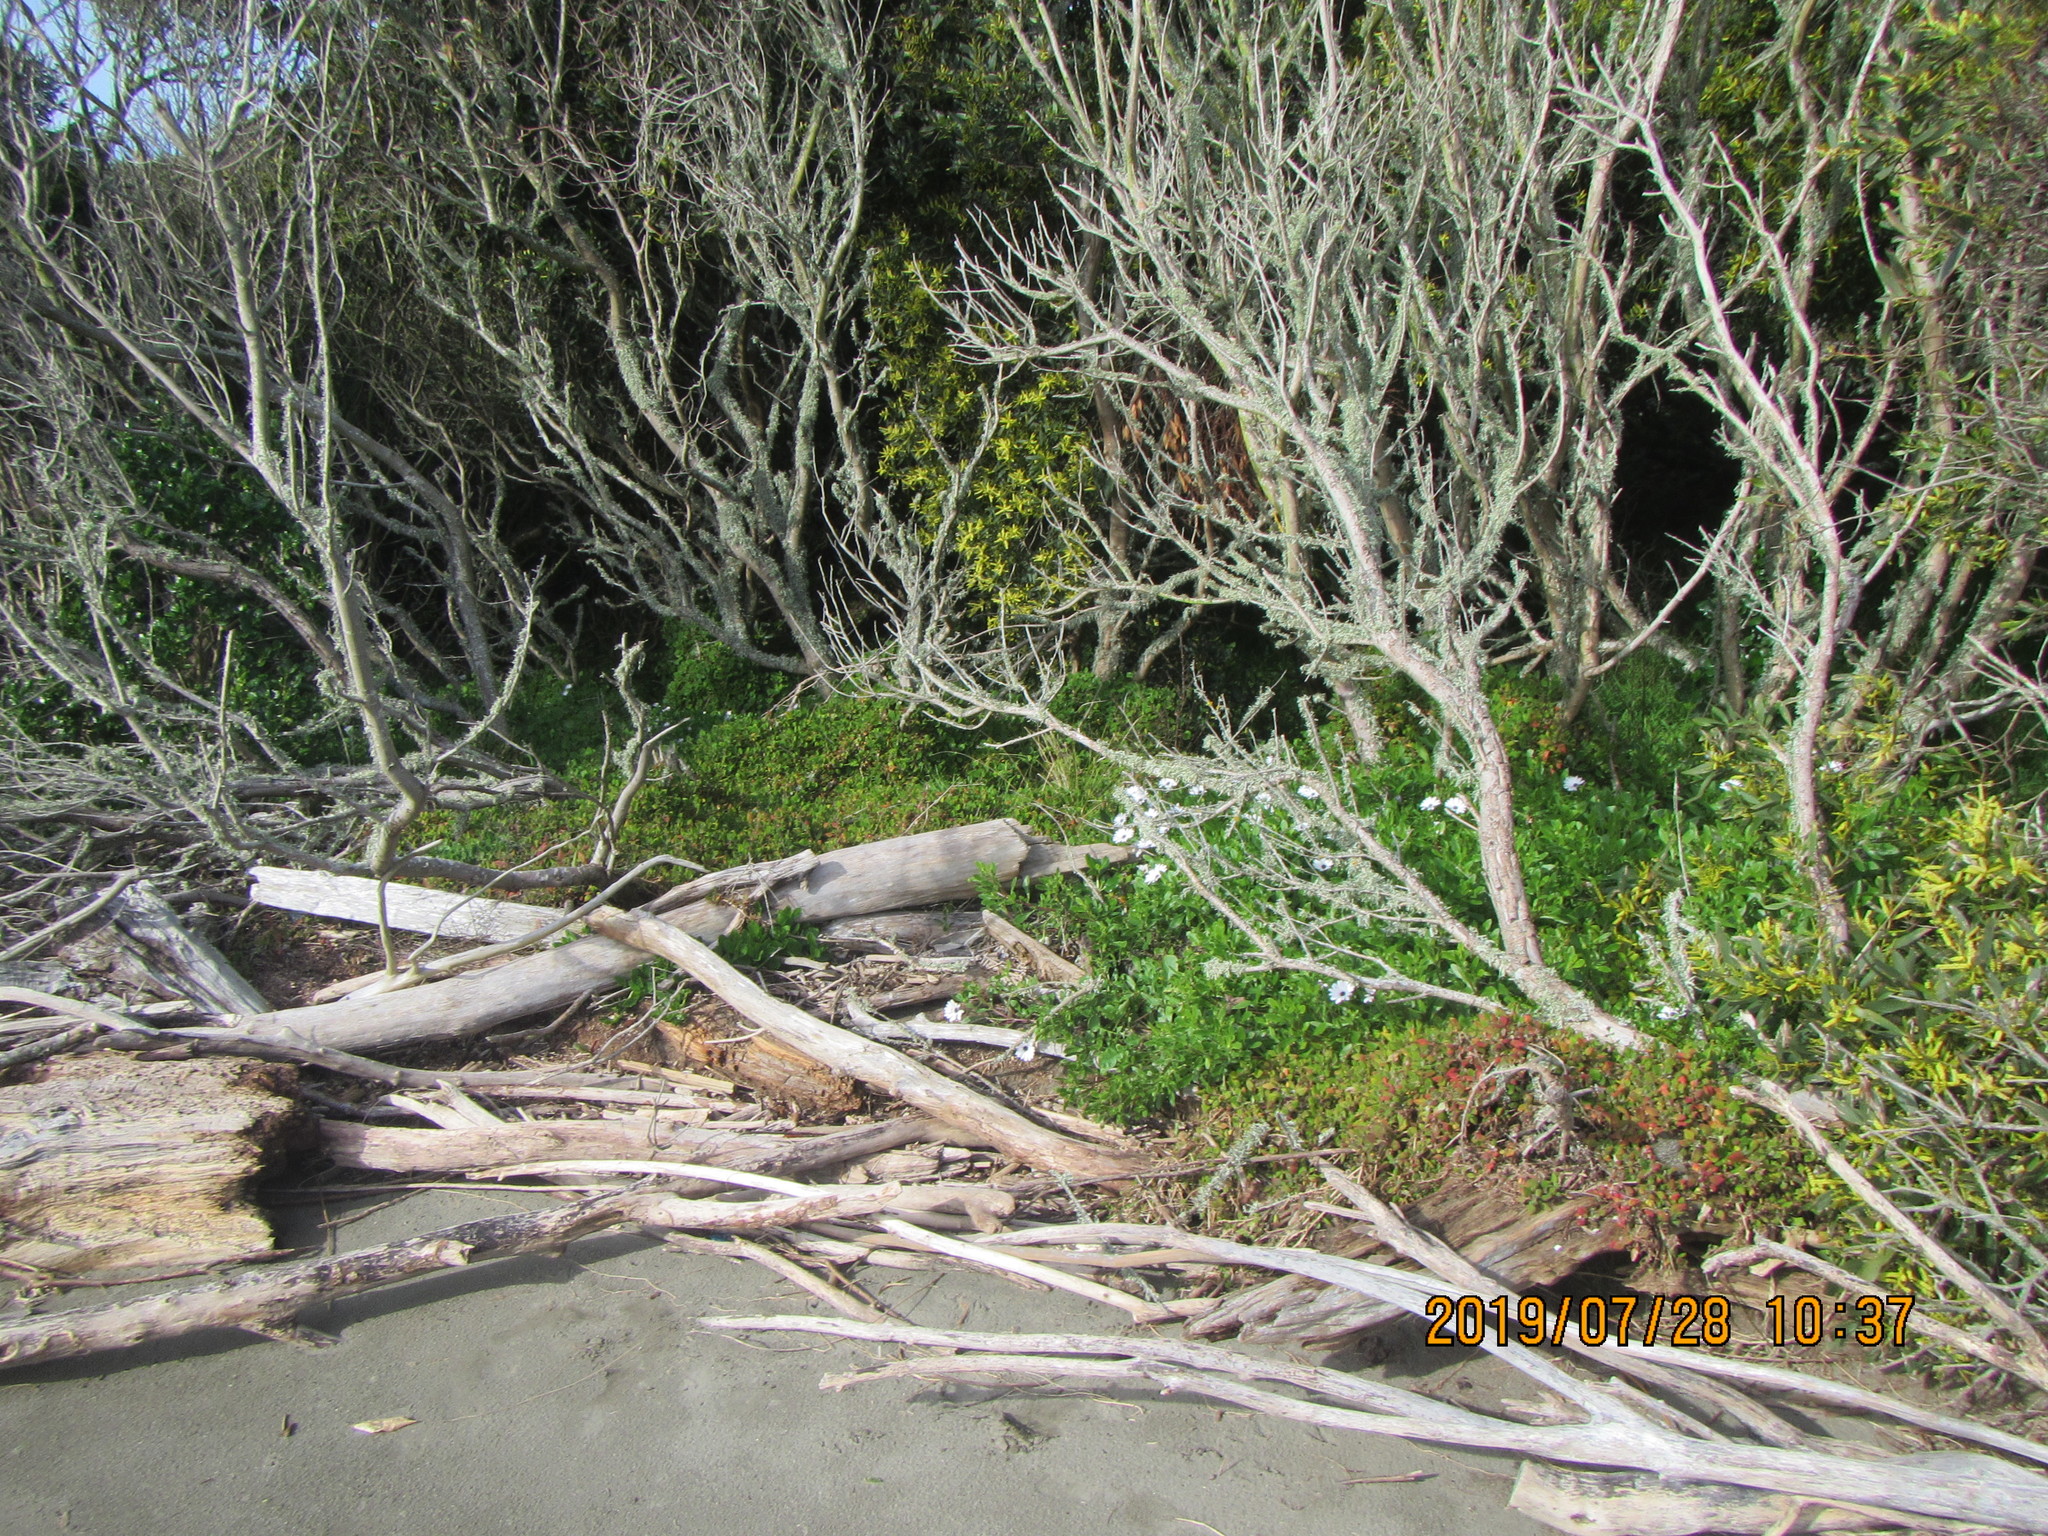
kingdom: Plantae
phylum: Tracheophyta
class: Magnoliopsida
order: Asterales
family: Asteraceae
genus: Dimorphotheca
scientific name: Dimorphotheca fruticosa
